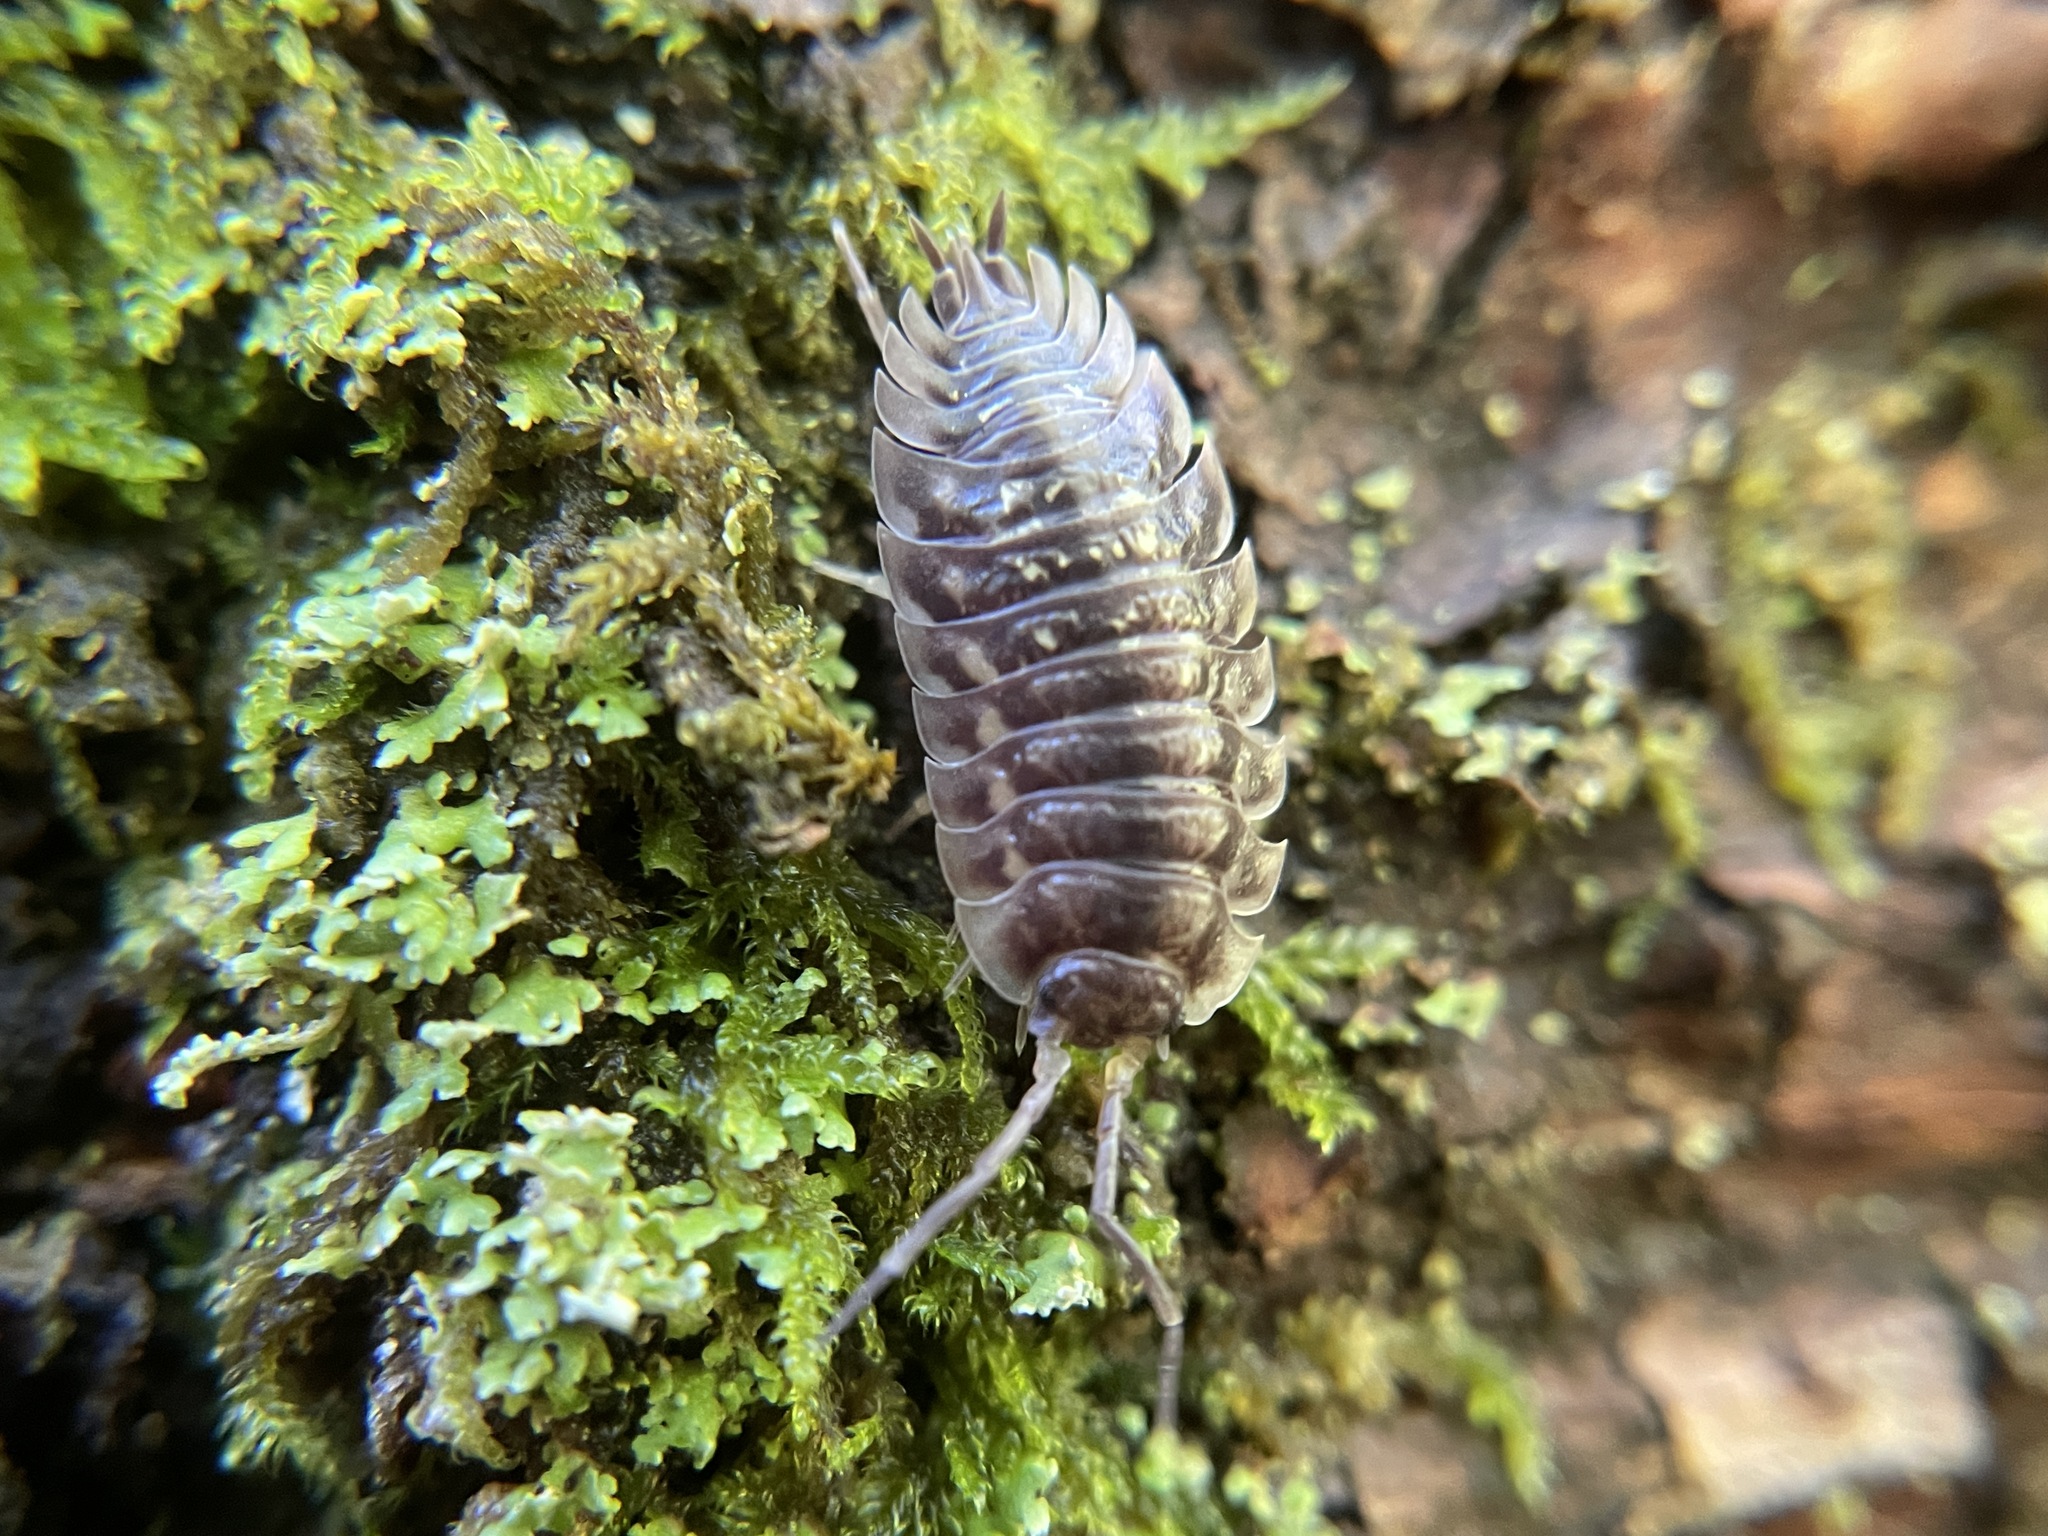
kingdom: Animalia
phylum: Arthropoda
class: Malacostraca
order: Isopoda
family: Oniscidae
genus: Oniscus
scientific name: Oniscus asellus
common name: Common shiny woodlouse
